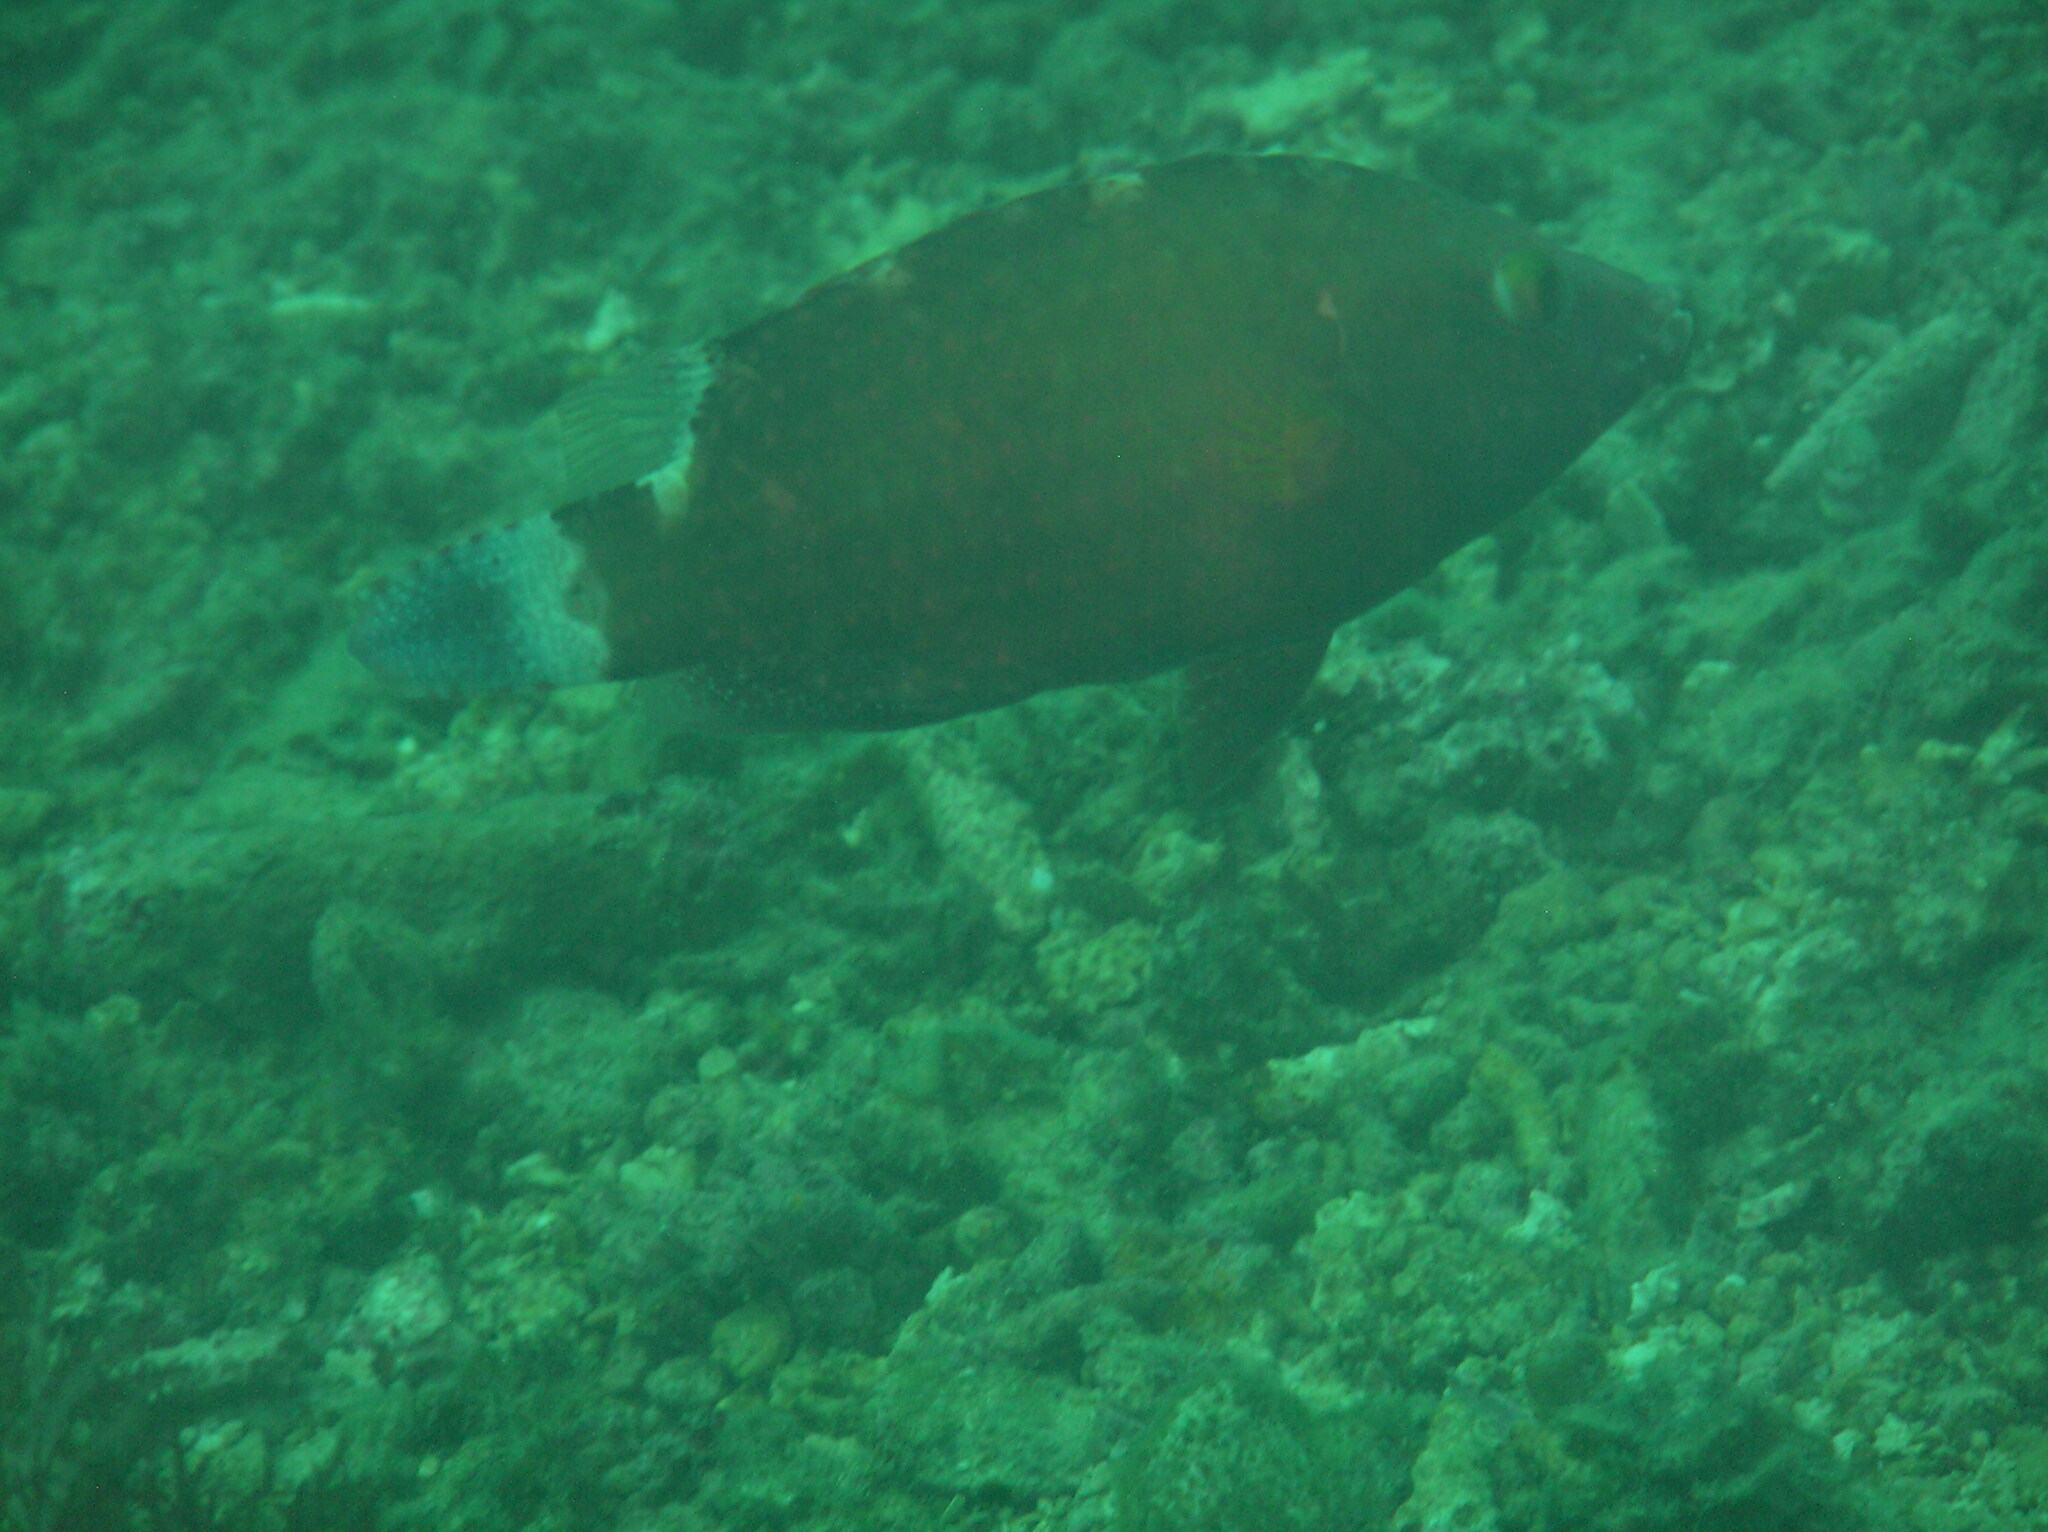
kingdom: Animalia
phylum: Chordata
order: Perciformes
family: Labridae
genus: Cheilinus
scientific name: Cheilinus chlorourus
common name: Floral wrasse
